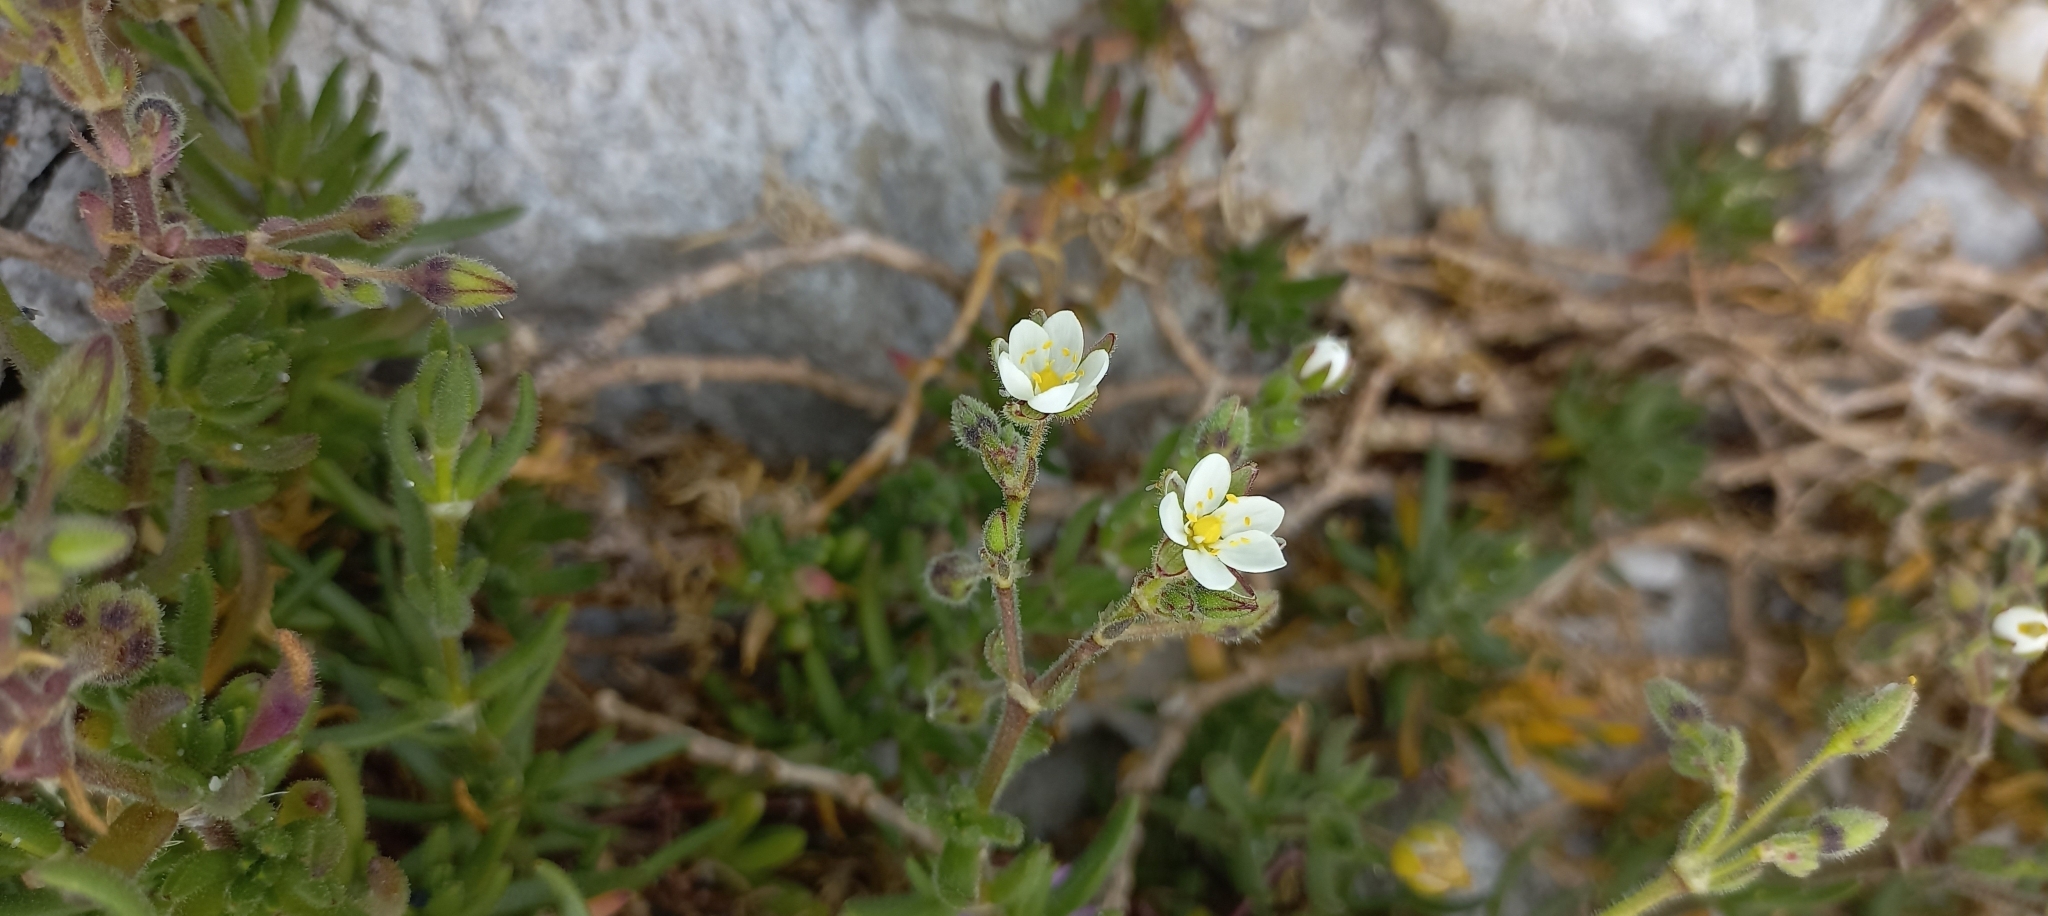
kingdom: Plantae
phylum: Tracheophyta
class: Magnoliopsida
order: Caryophyllales
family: Caryophyllaceae
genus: Spergularia
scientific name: Spergularia media
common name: Greater sea-spurrey
